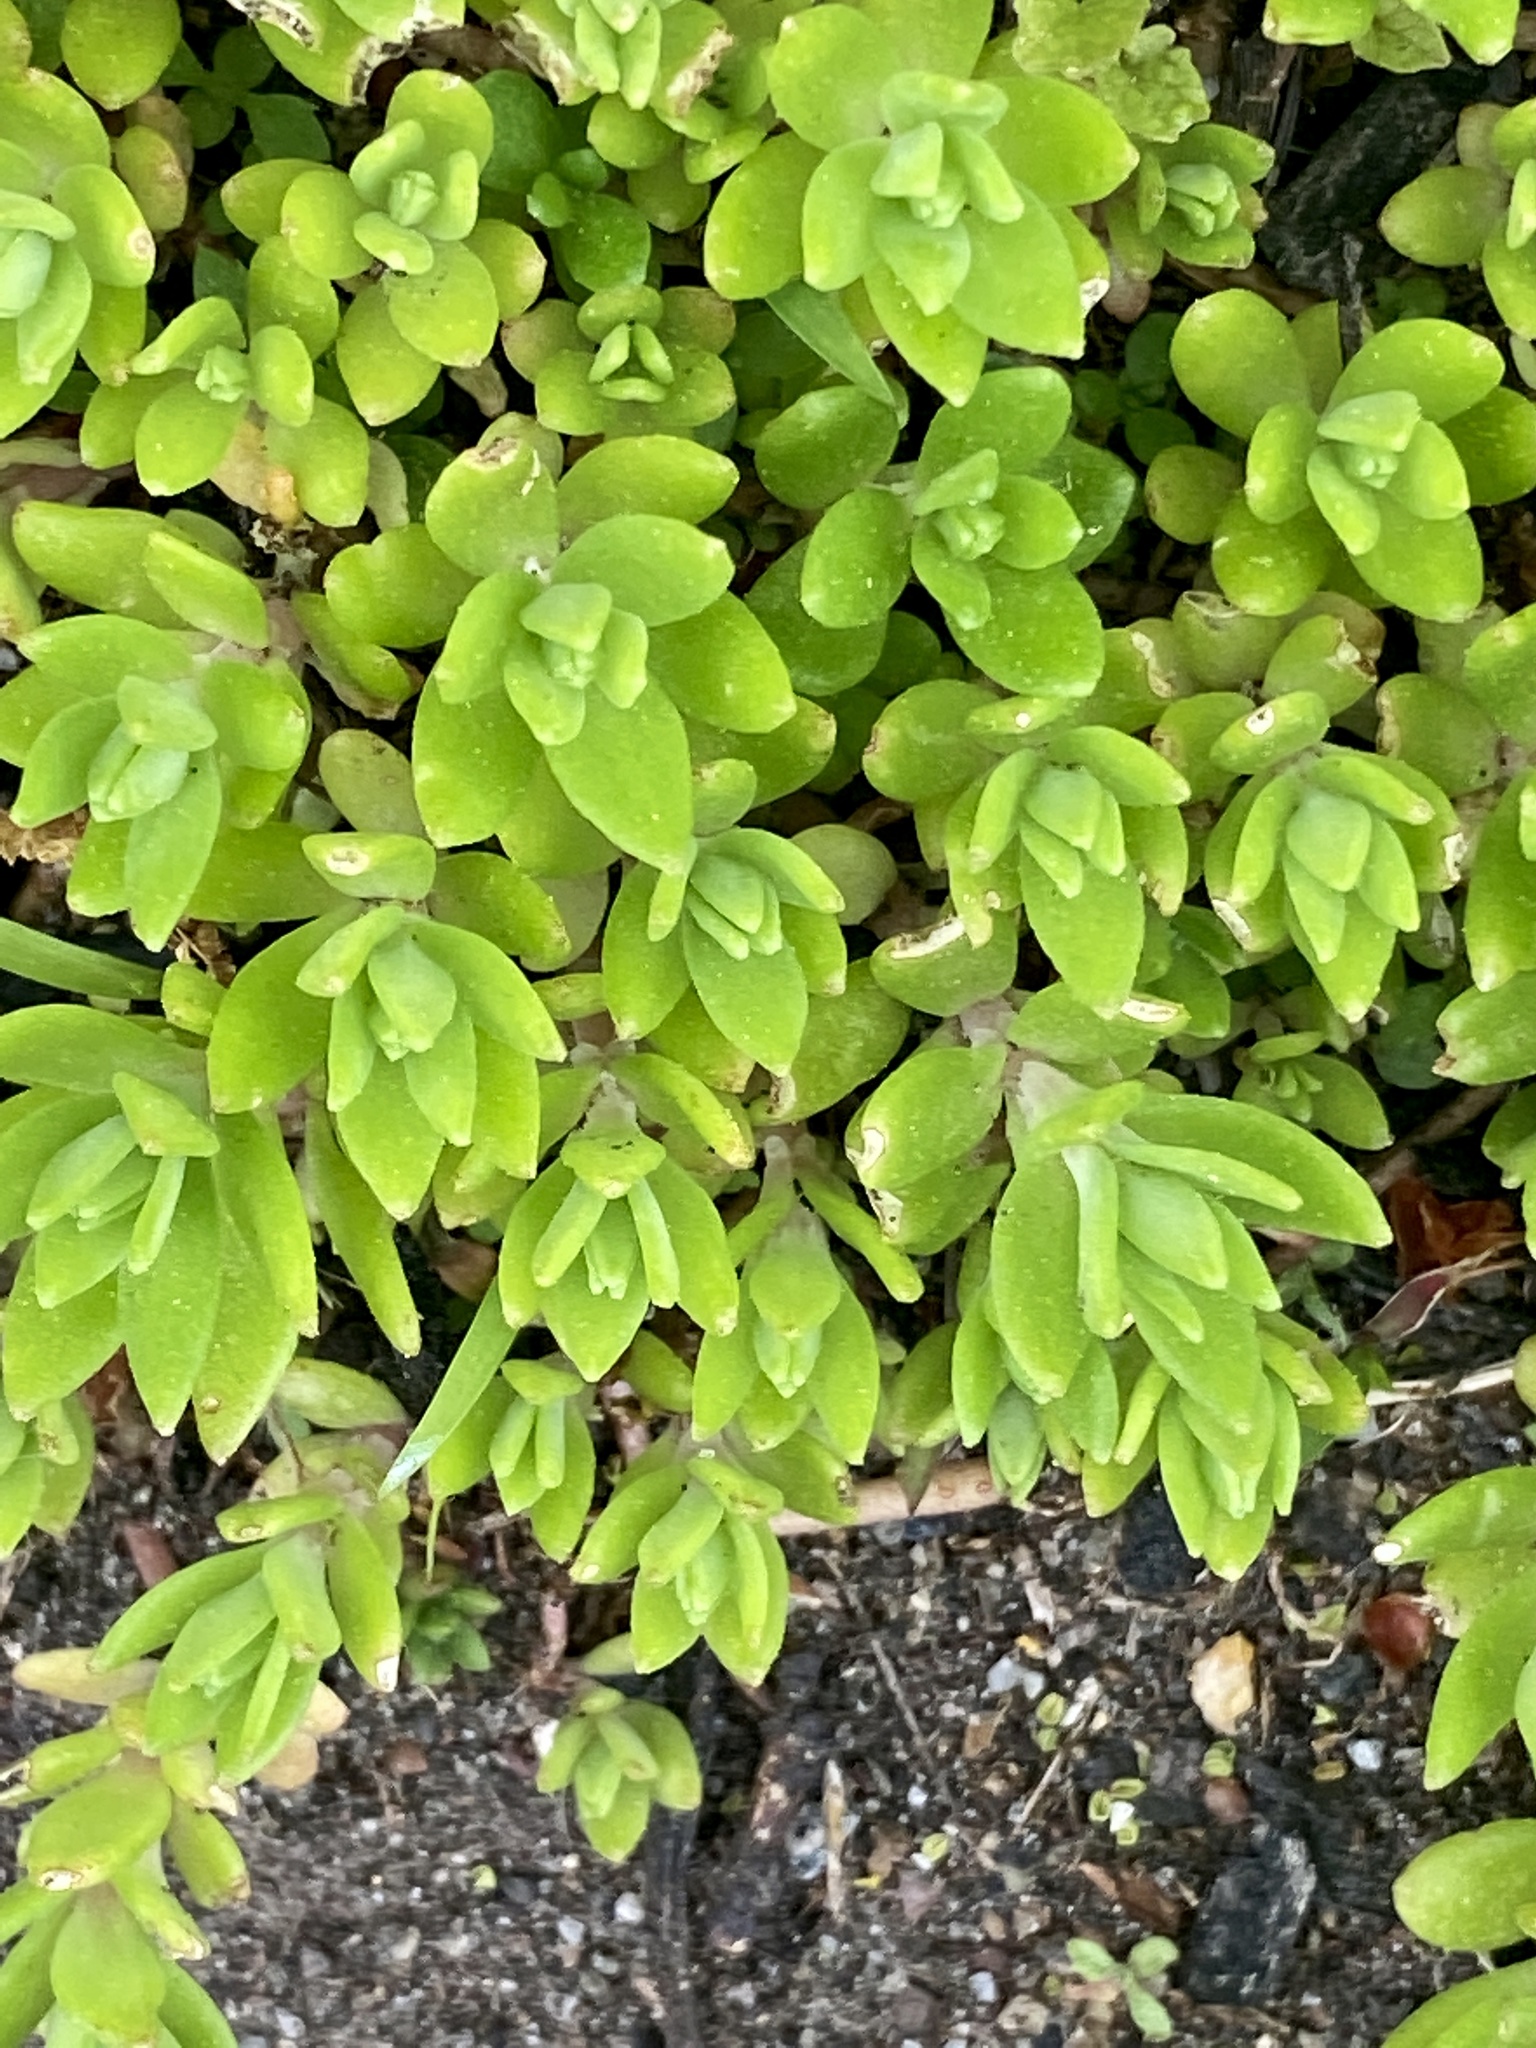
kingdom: Plantae
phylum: Tracheophyta
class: Magnoliopsida
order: Saxifragales
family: Crassulaceae
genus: Sedum
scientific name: Sedum sarmentosum
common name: Stringy stonecrop
